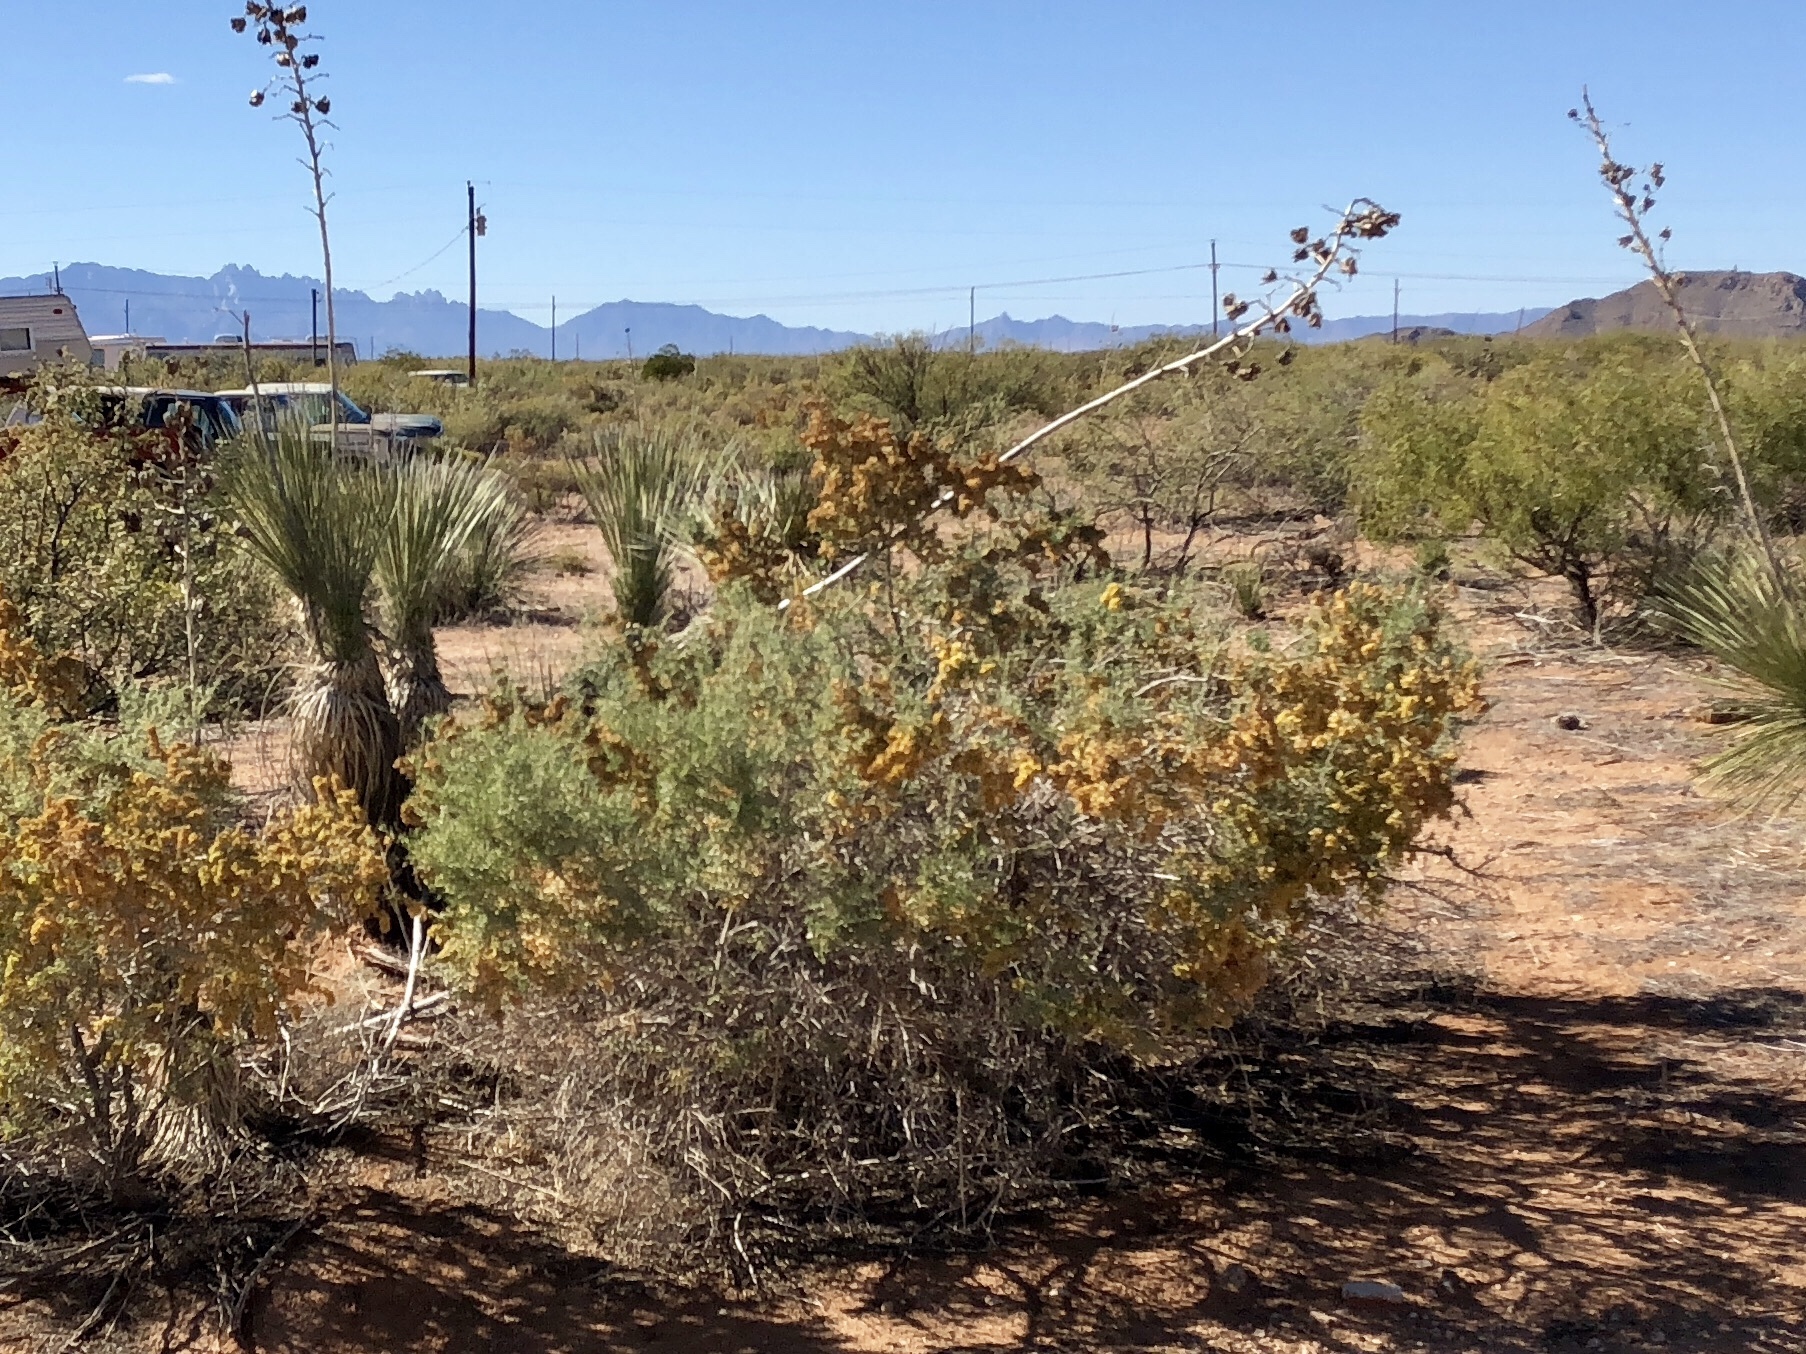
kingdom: Plantae
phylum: Tracheophyta
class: Magnoliopsida
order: Caryophyllales
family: Amaranthaceae
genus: Atriplex
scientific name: Atriplex canescens
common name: Four-wing saltbush
